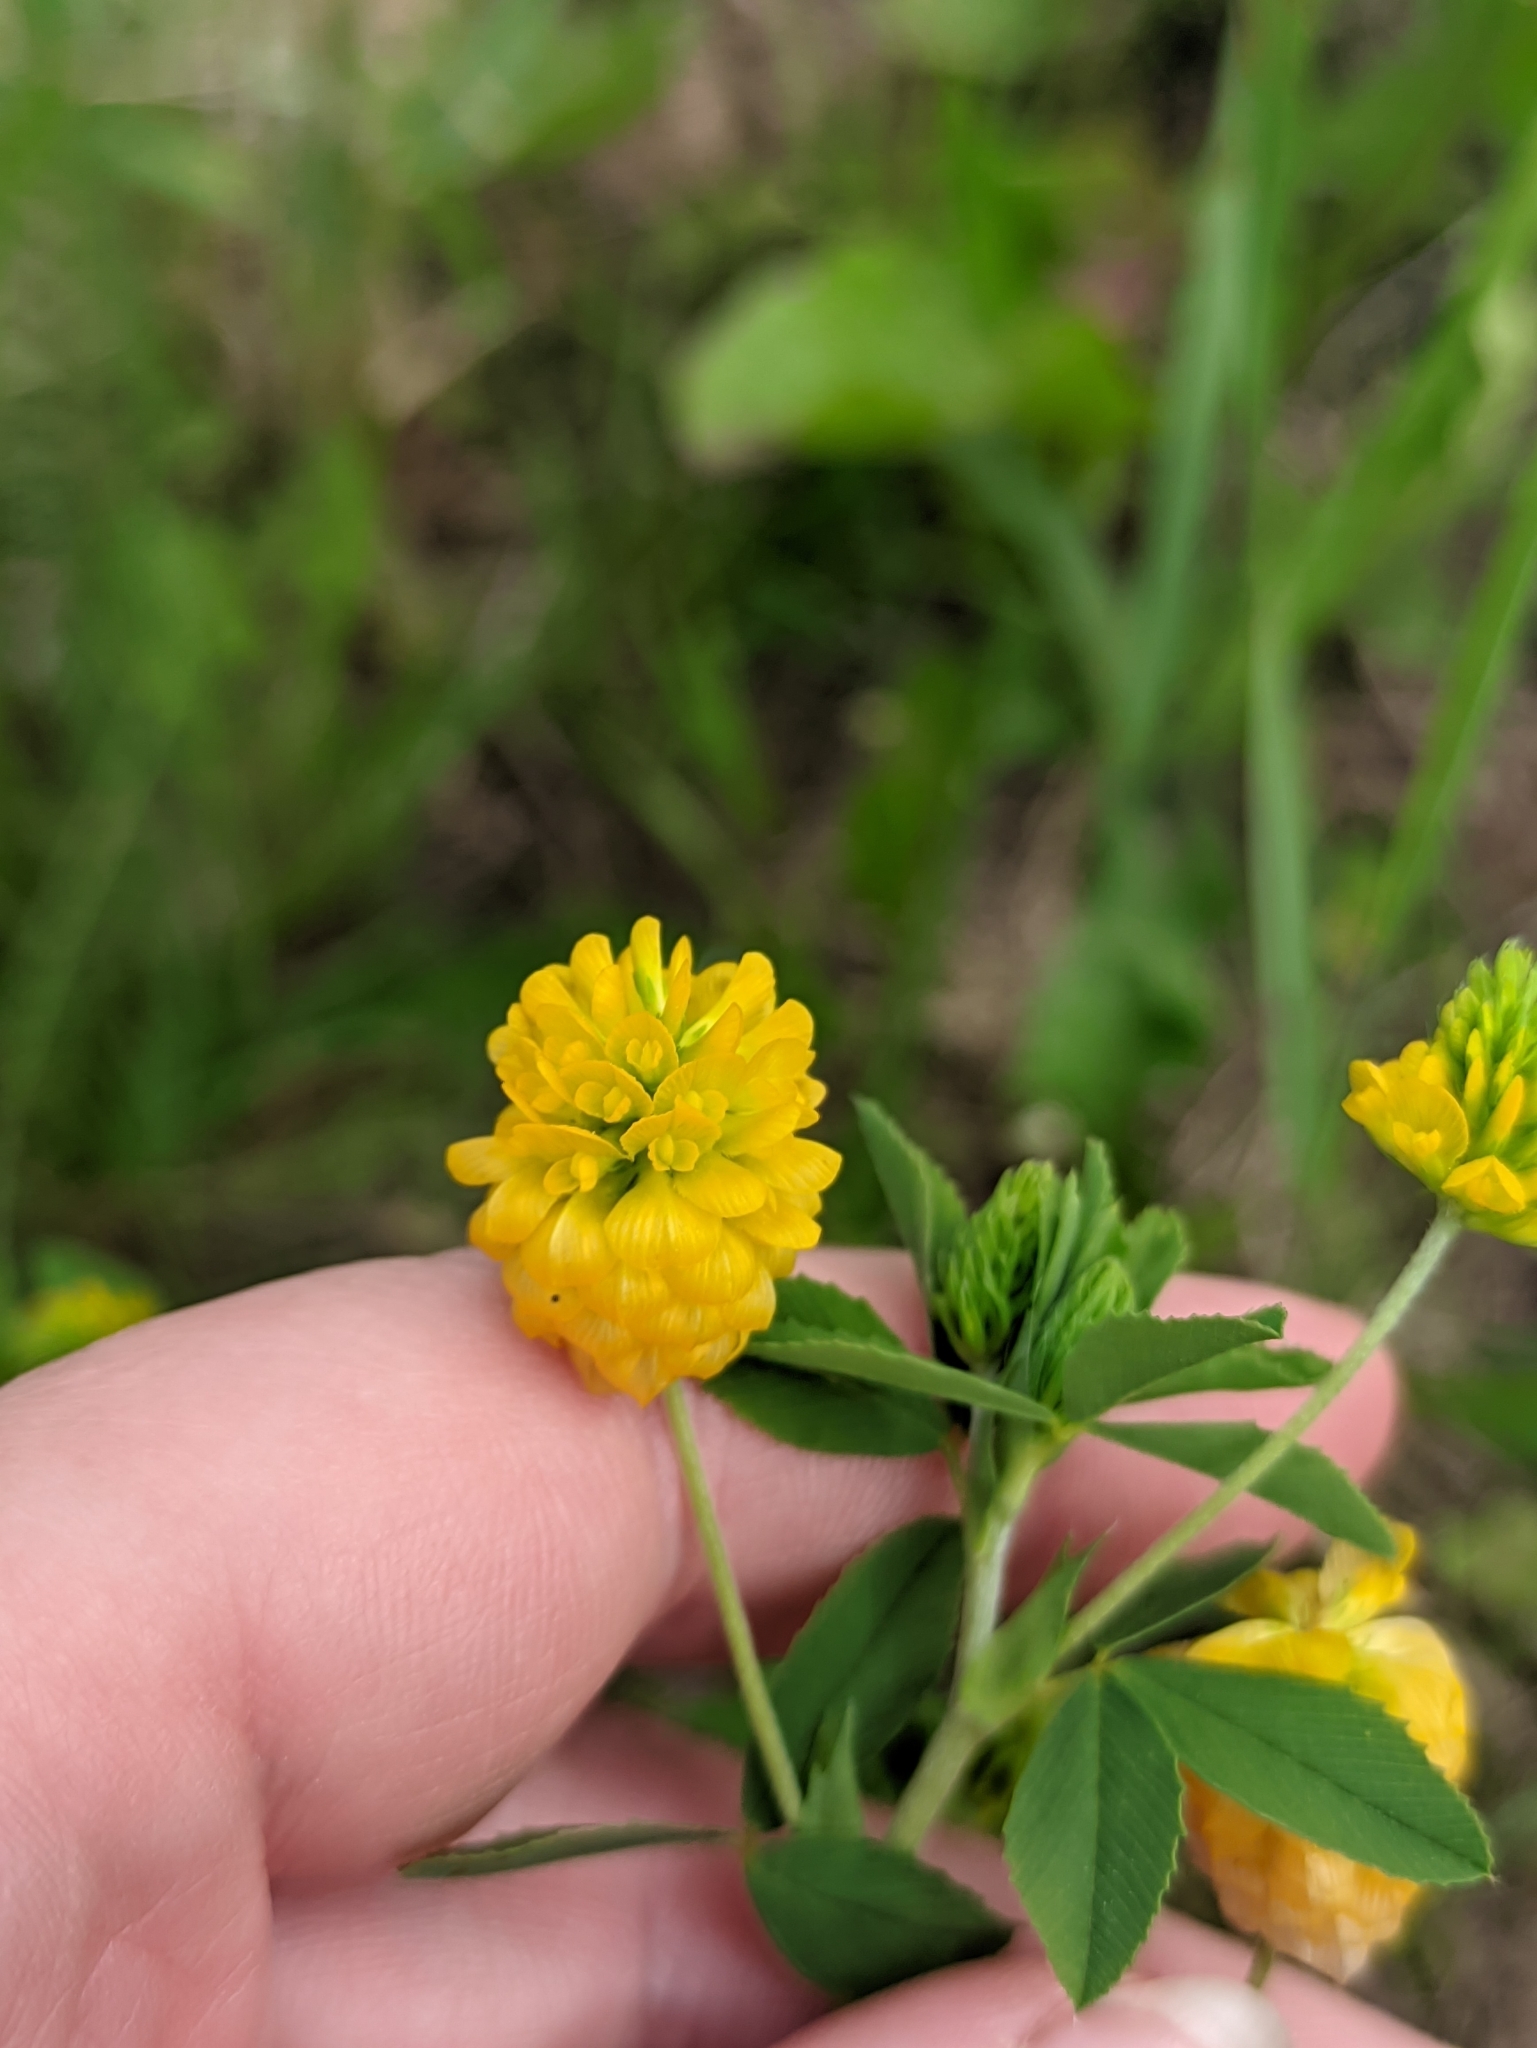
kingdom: Plantae
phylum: Tracheophyta
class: Magnoliopsida
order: Fabales
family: Fabaceae
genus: Trifolium
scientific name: Trifolium aureum
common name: Golden clover
